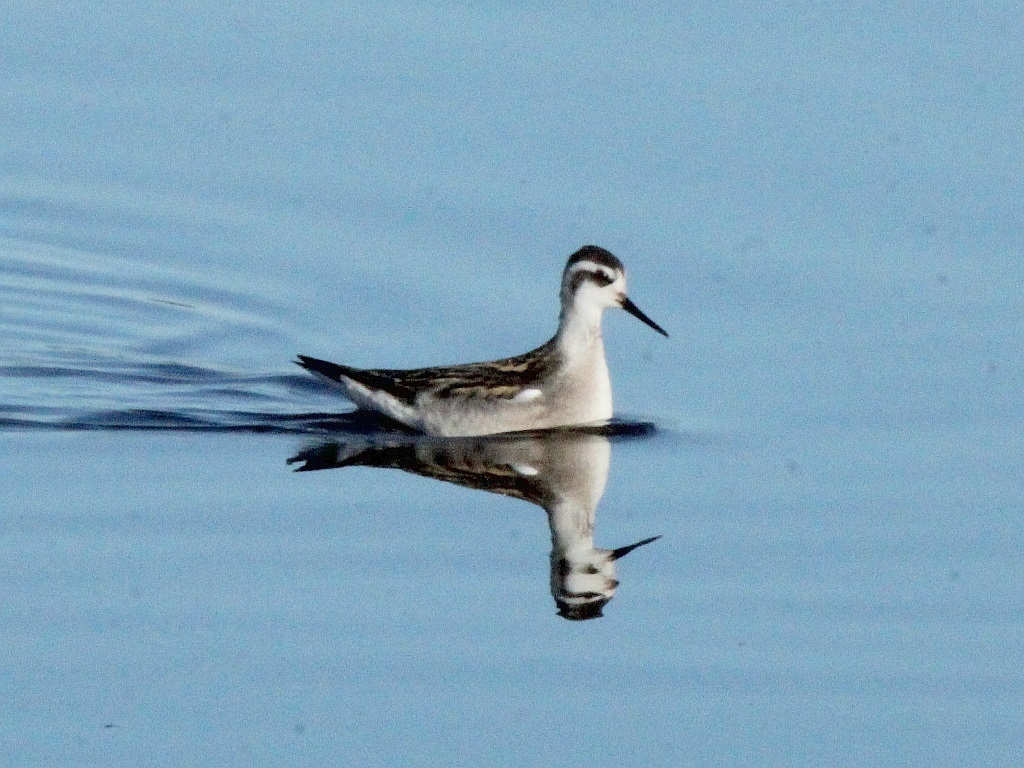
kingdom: Animalia
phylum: Chordata
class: Aves
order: Charadriiformes
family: Scolopacidae
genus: Phalaropus
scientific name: Phalaropus lobatus
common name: Red-necked phalarope
